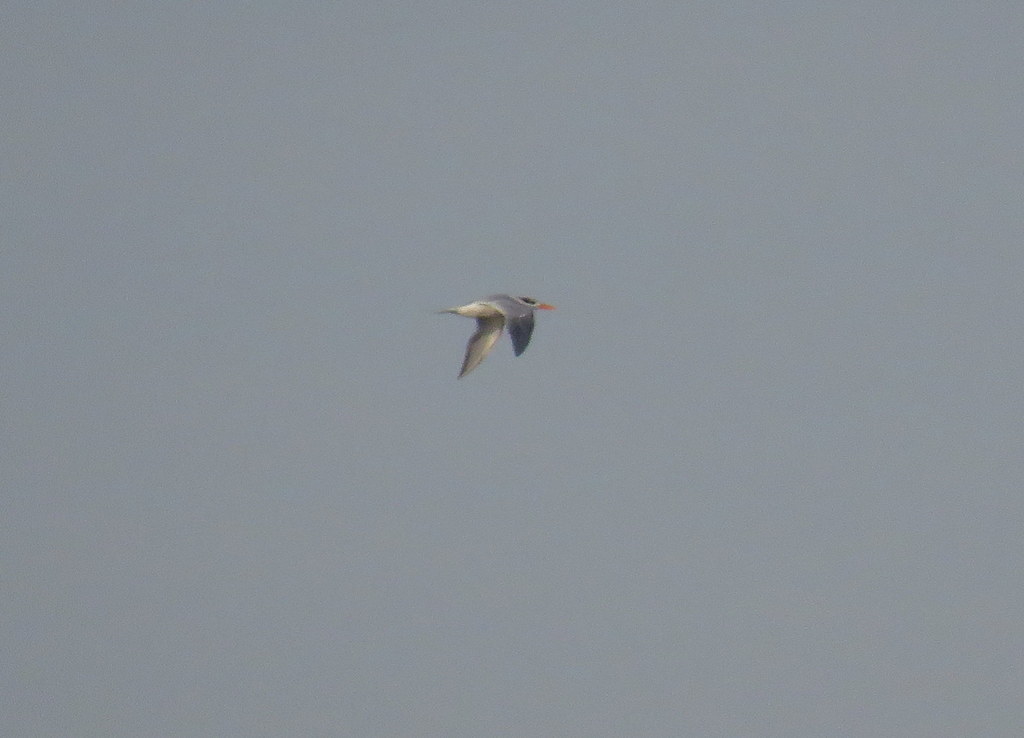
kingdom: Animalia
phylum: Chordata
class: Aves
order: Charadriiformes
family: Laridae
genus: Thalasseus
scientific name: Thalasseus maximus
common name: Royal tern
